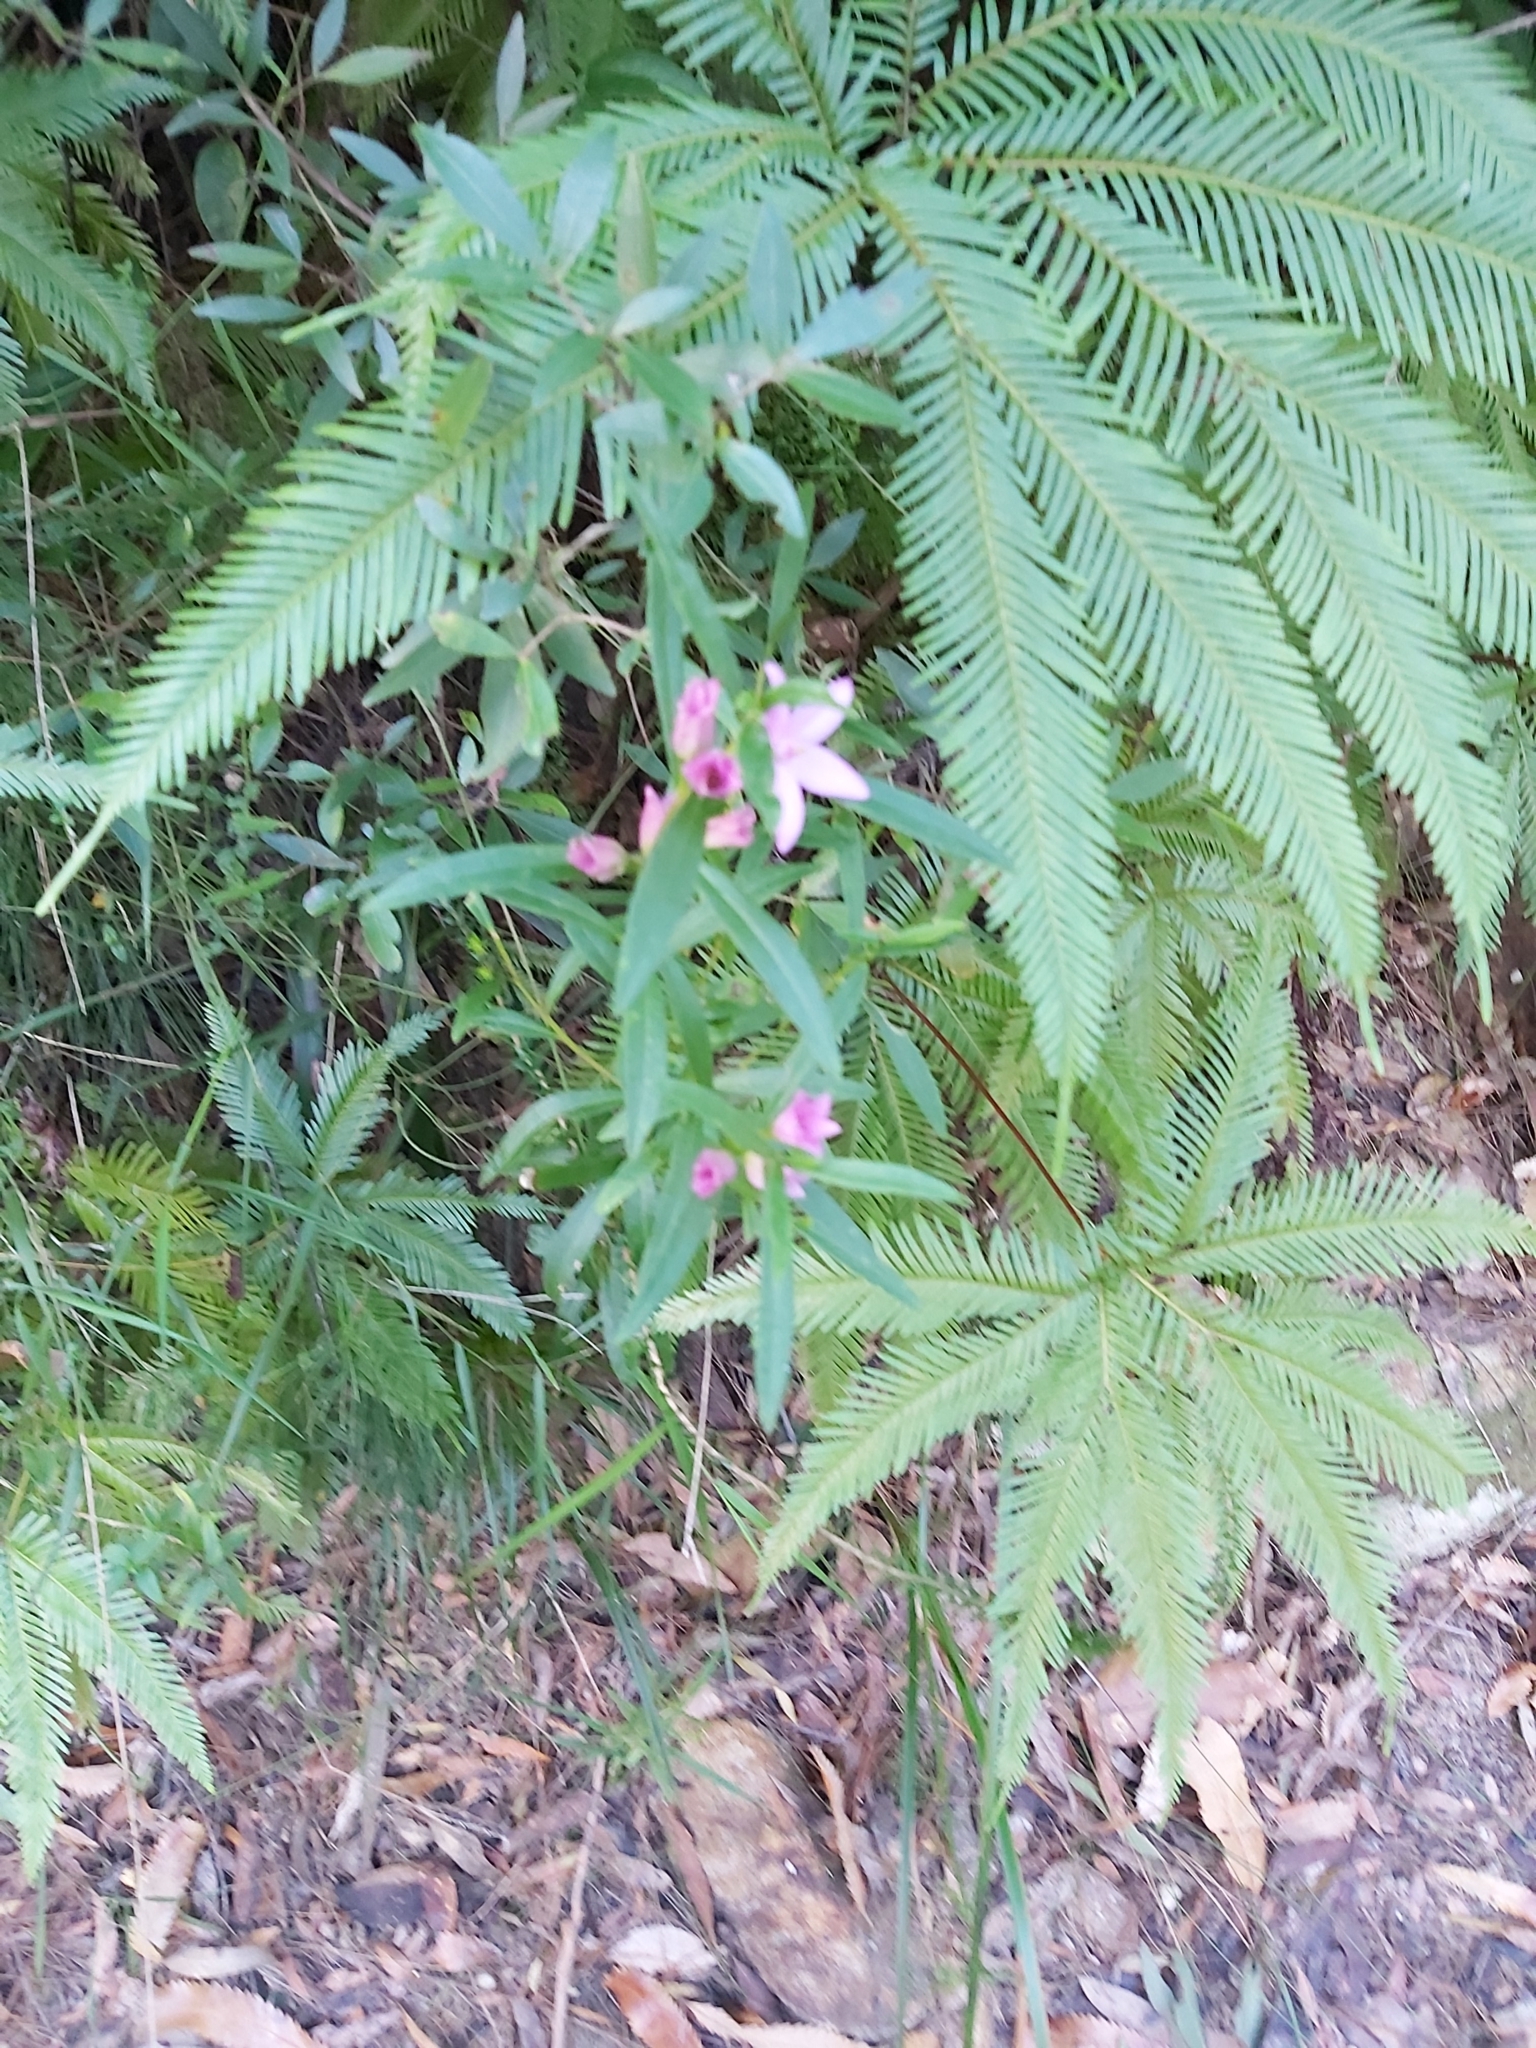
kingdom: Plantae
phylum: Tracheophyta
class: Magnoliopsida
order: Sapindales
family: Rutaceae
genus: Crowea
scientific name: Crowea saligna
